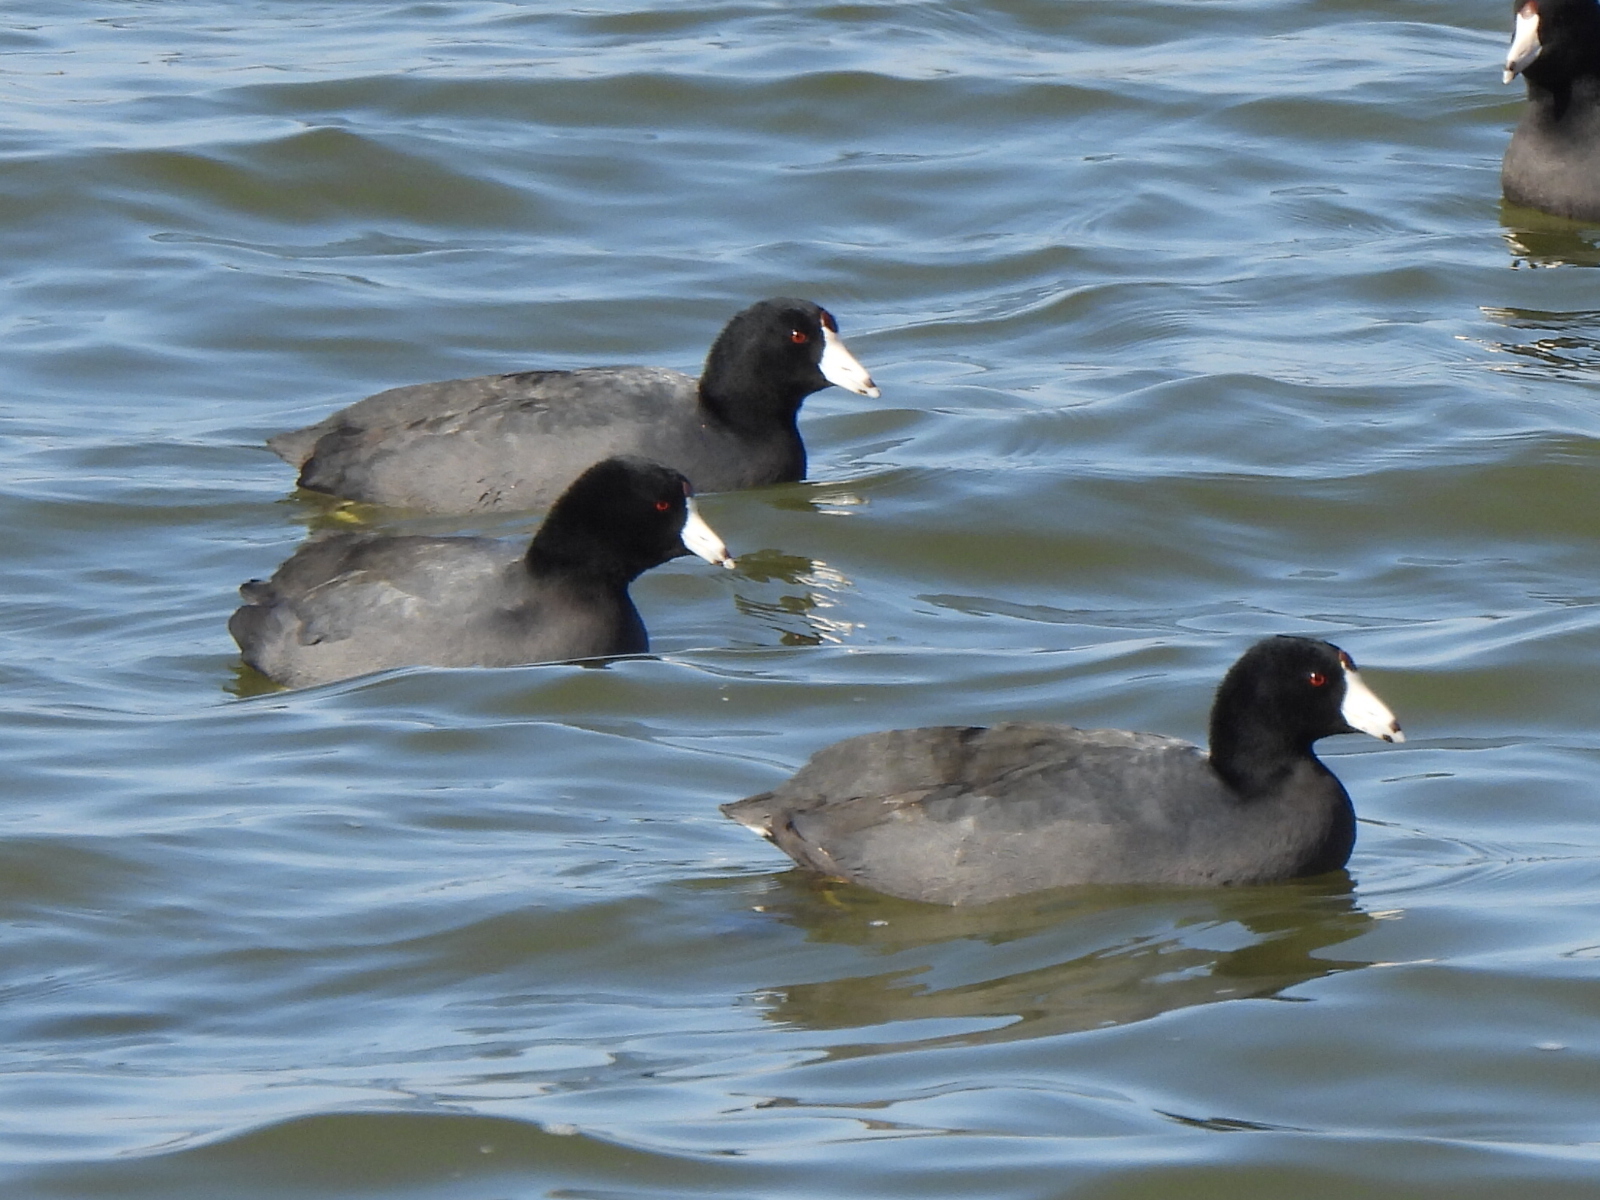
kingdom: Animalia
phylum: Chordata
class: Aves
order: Gruiformes
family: Rallidae
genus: Fulica
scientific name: Fulica americana
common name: American coot
